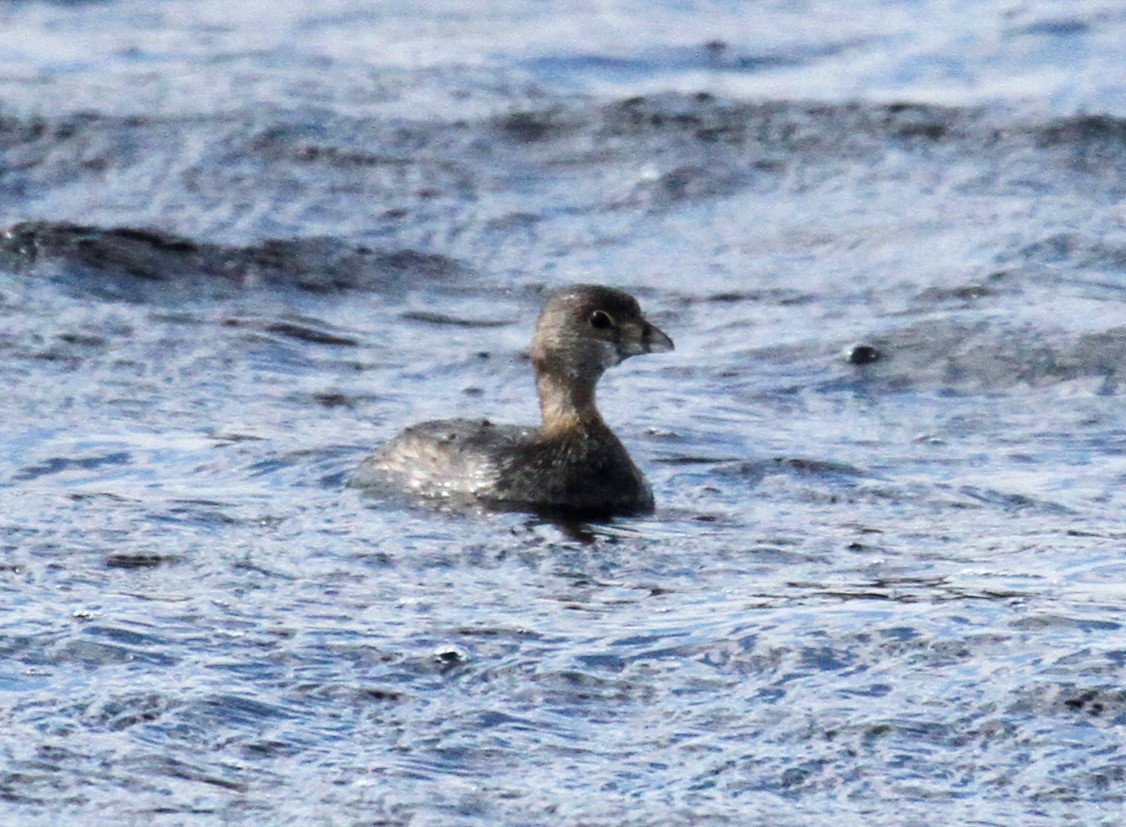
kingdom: Animalia
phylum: Chordata
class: Aves
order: Podicipediformes
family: Podicipedidae
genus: Podilymbus
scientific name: Podilymbus podiceps
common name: Pied-billed grebe
